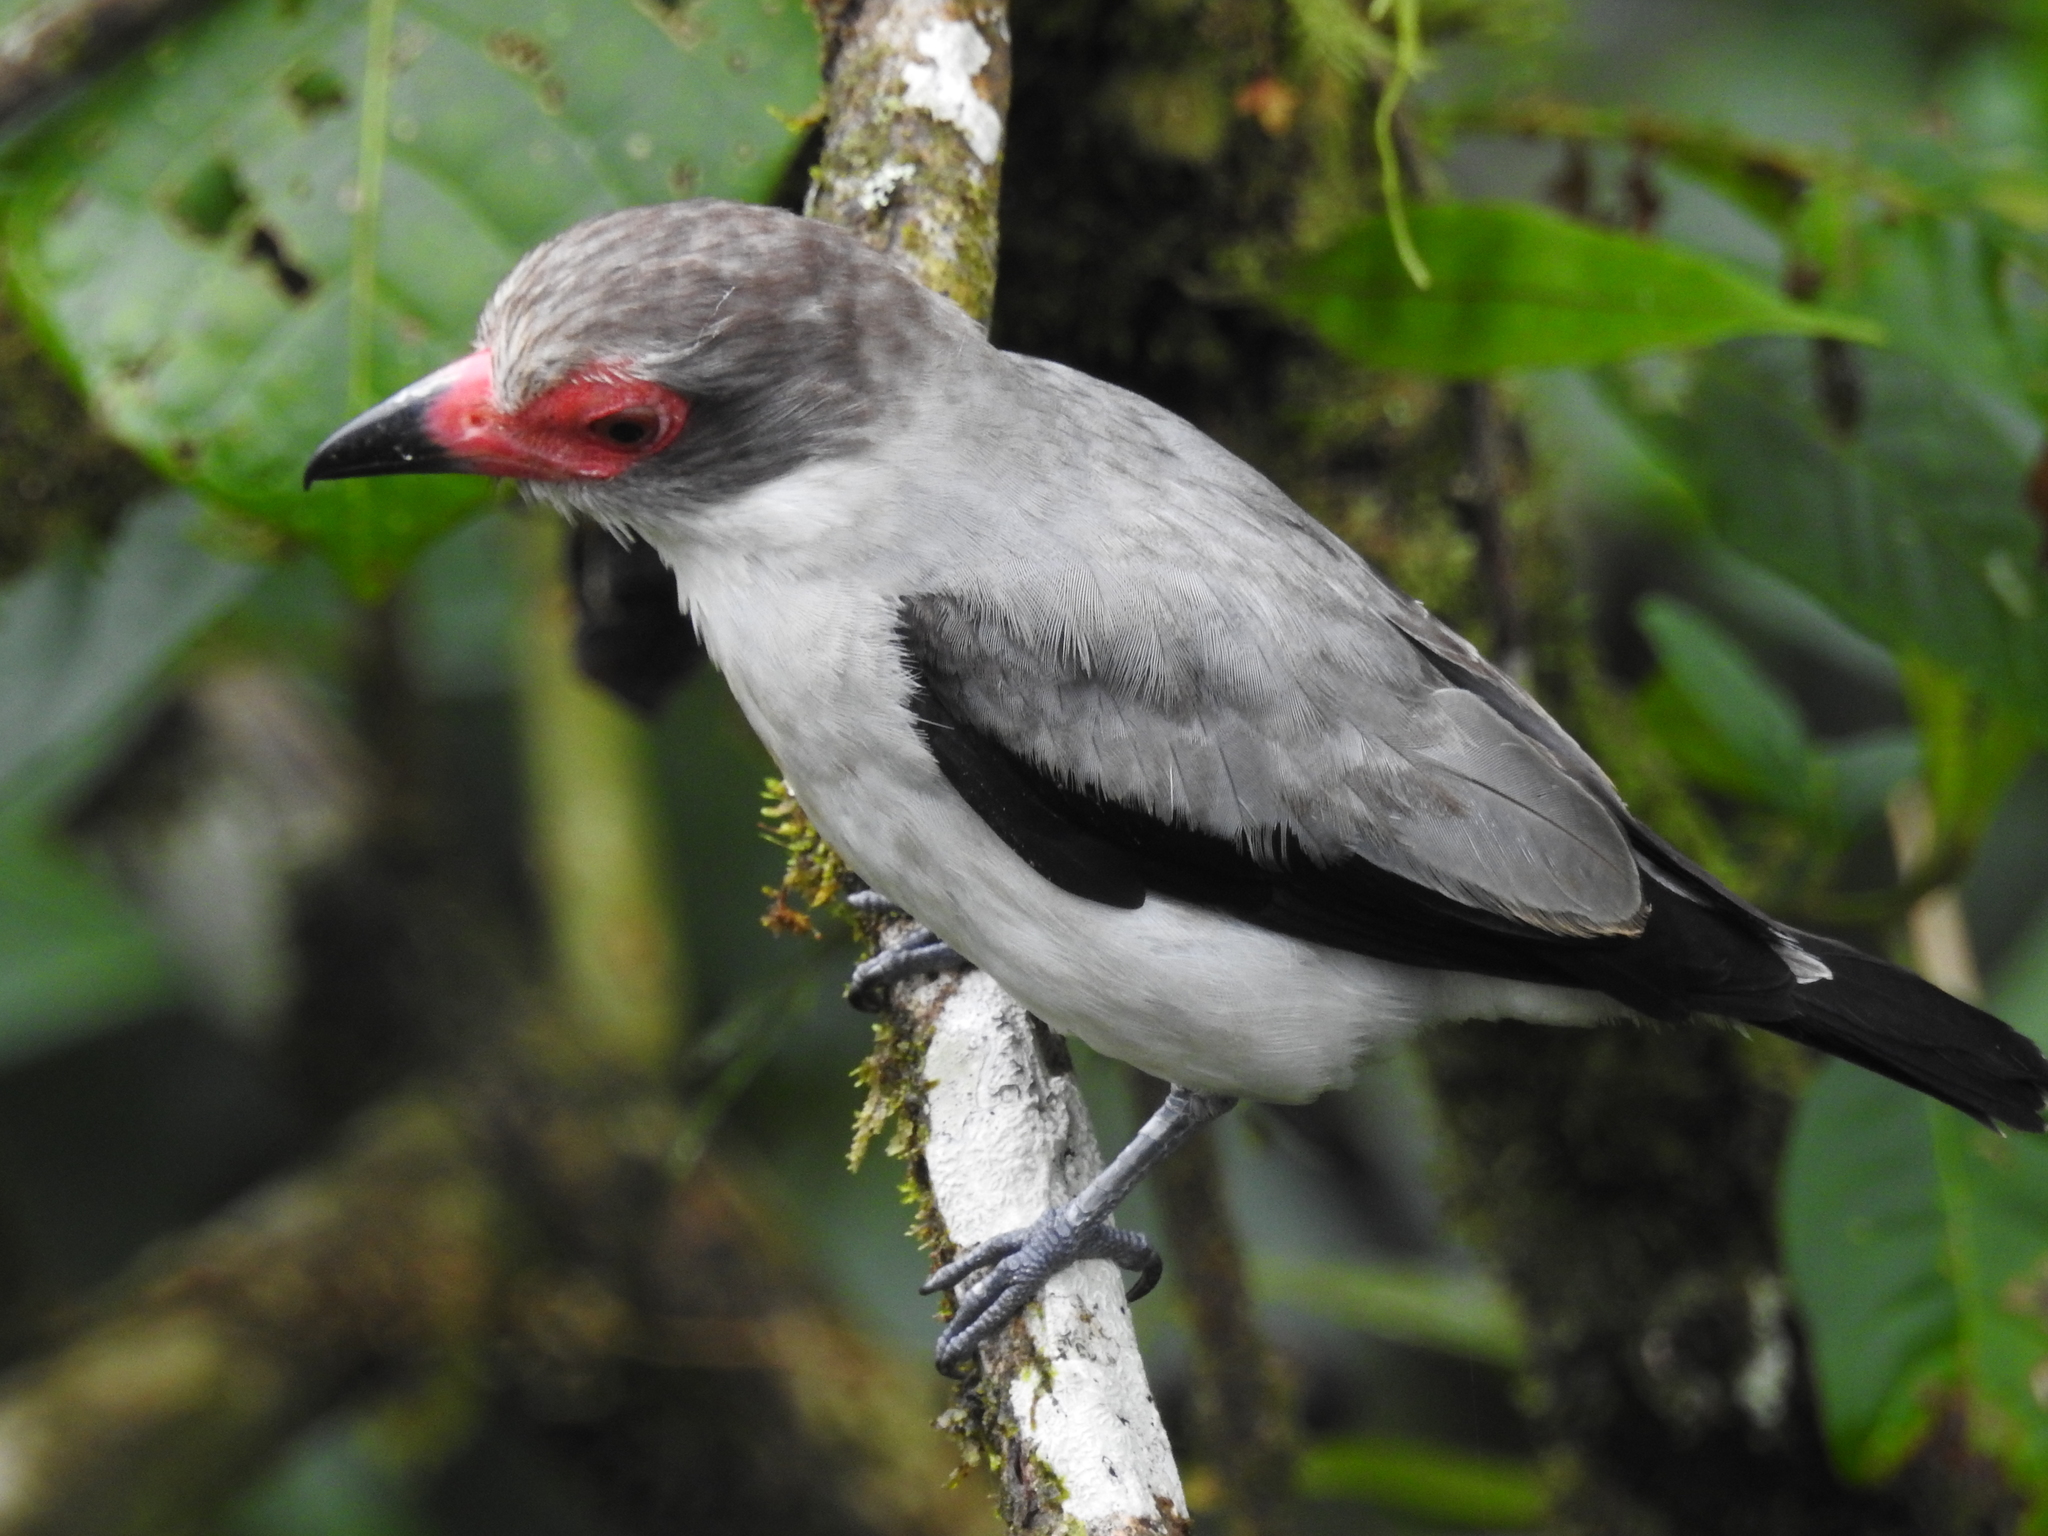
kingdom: Animalia
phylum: Chordata
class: Aves
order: Passeriformes
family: Cotingidae
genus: Tityra
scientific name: Tityra semifasciata
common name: Masked tityra
